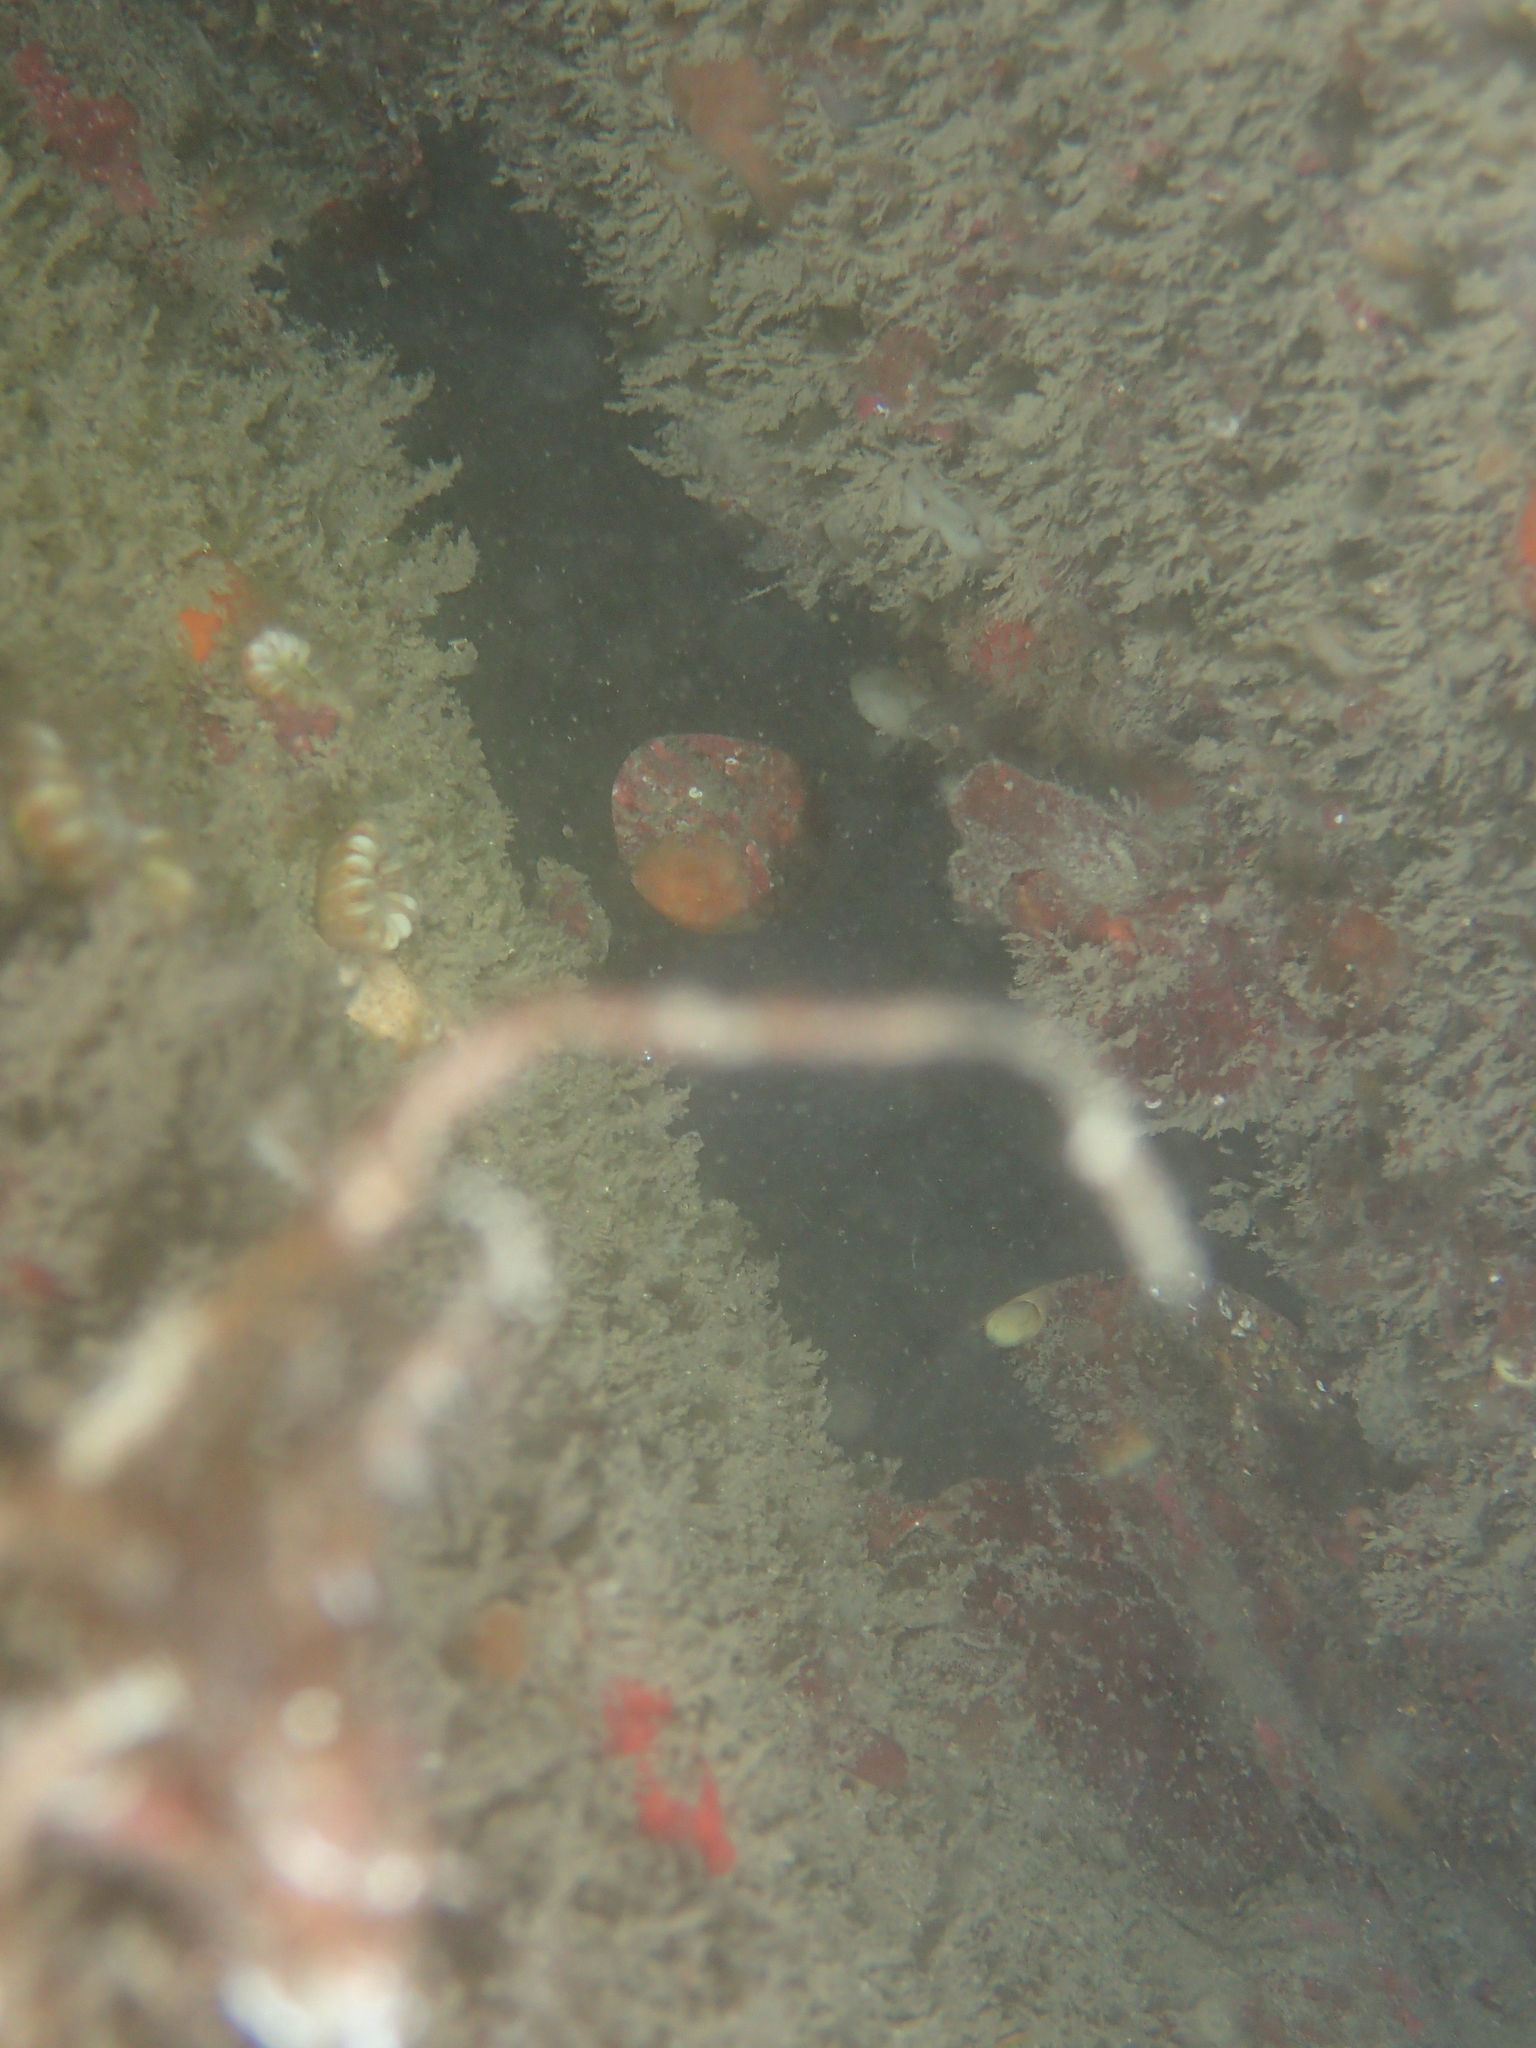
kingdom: Animalia
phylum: Porifera
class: Demospongiae
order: Tetractinellida
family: Ancorinidae
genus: Dercitus
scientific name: Dercitus bucklandi
